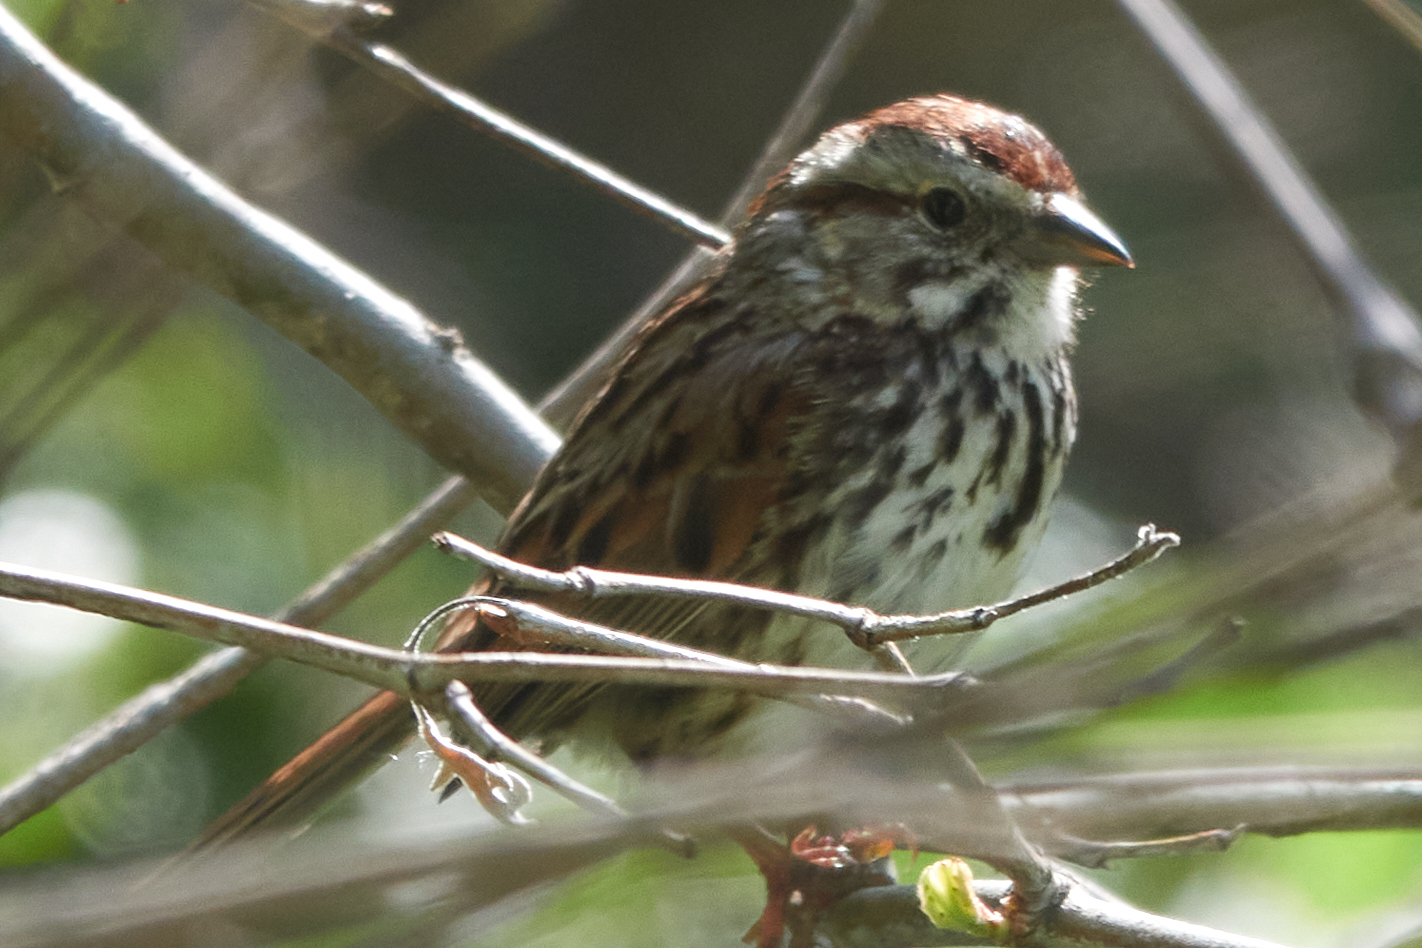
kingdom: Animalia
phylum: Chordata
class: Aves
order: Passeriformes
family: Passerellidae
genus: Melospiza
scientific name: Melospiza melodia
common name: Song sparrow
